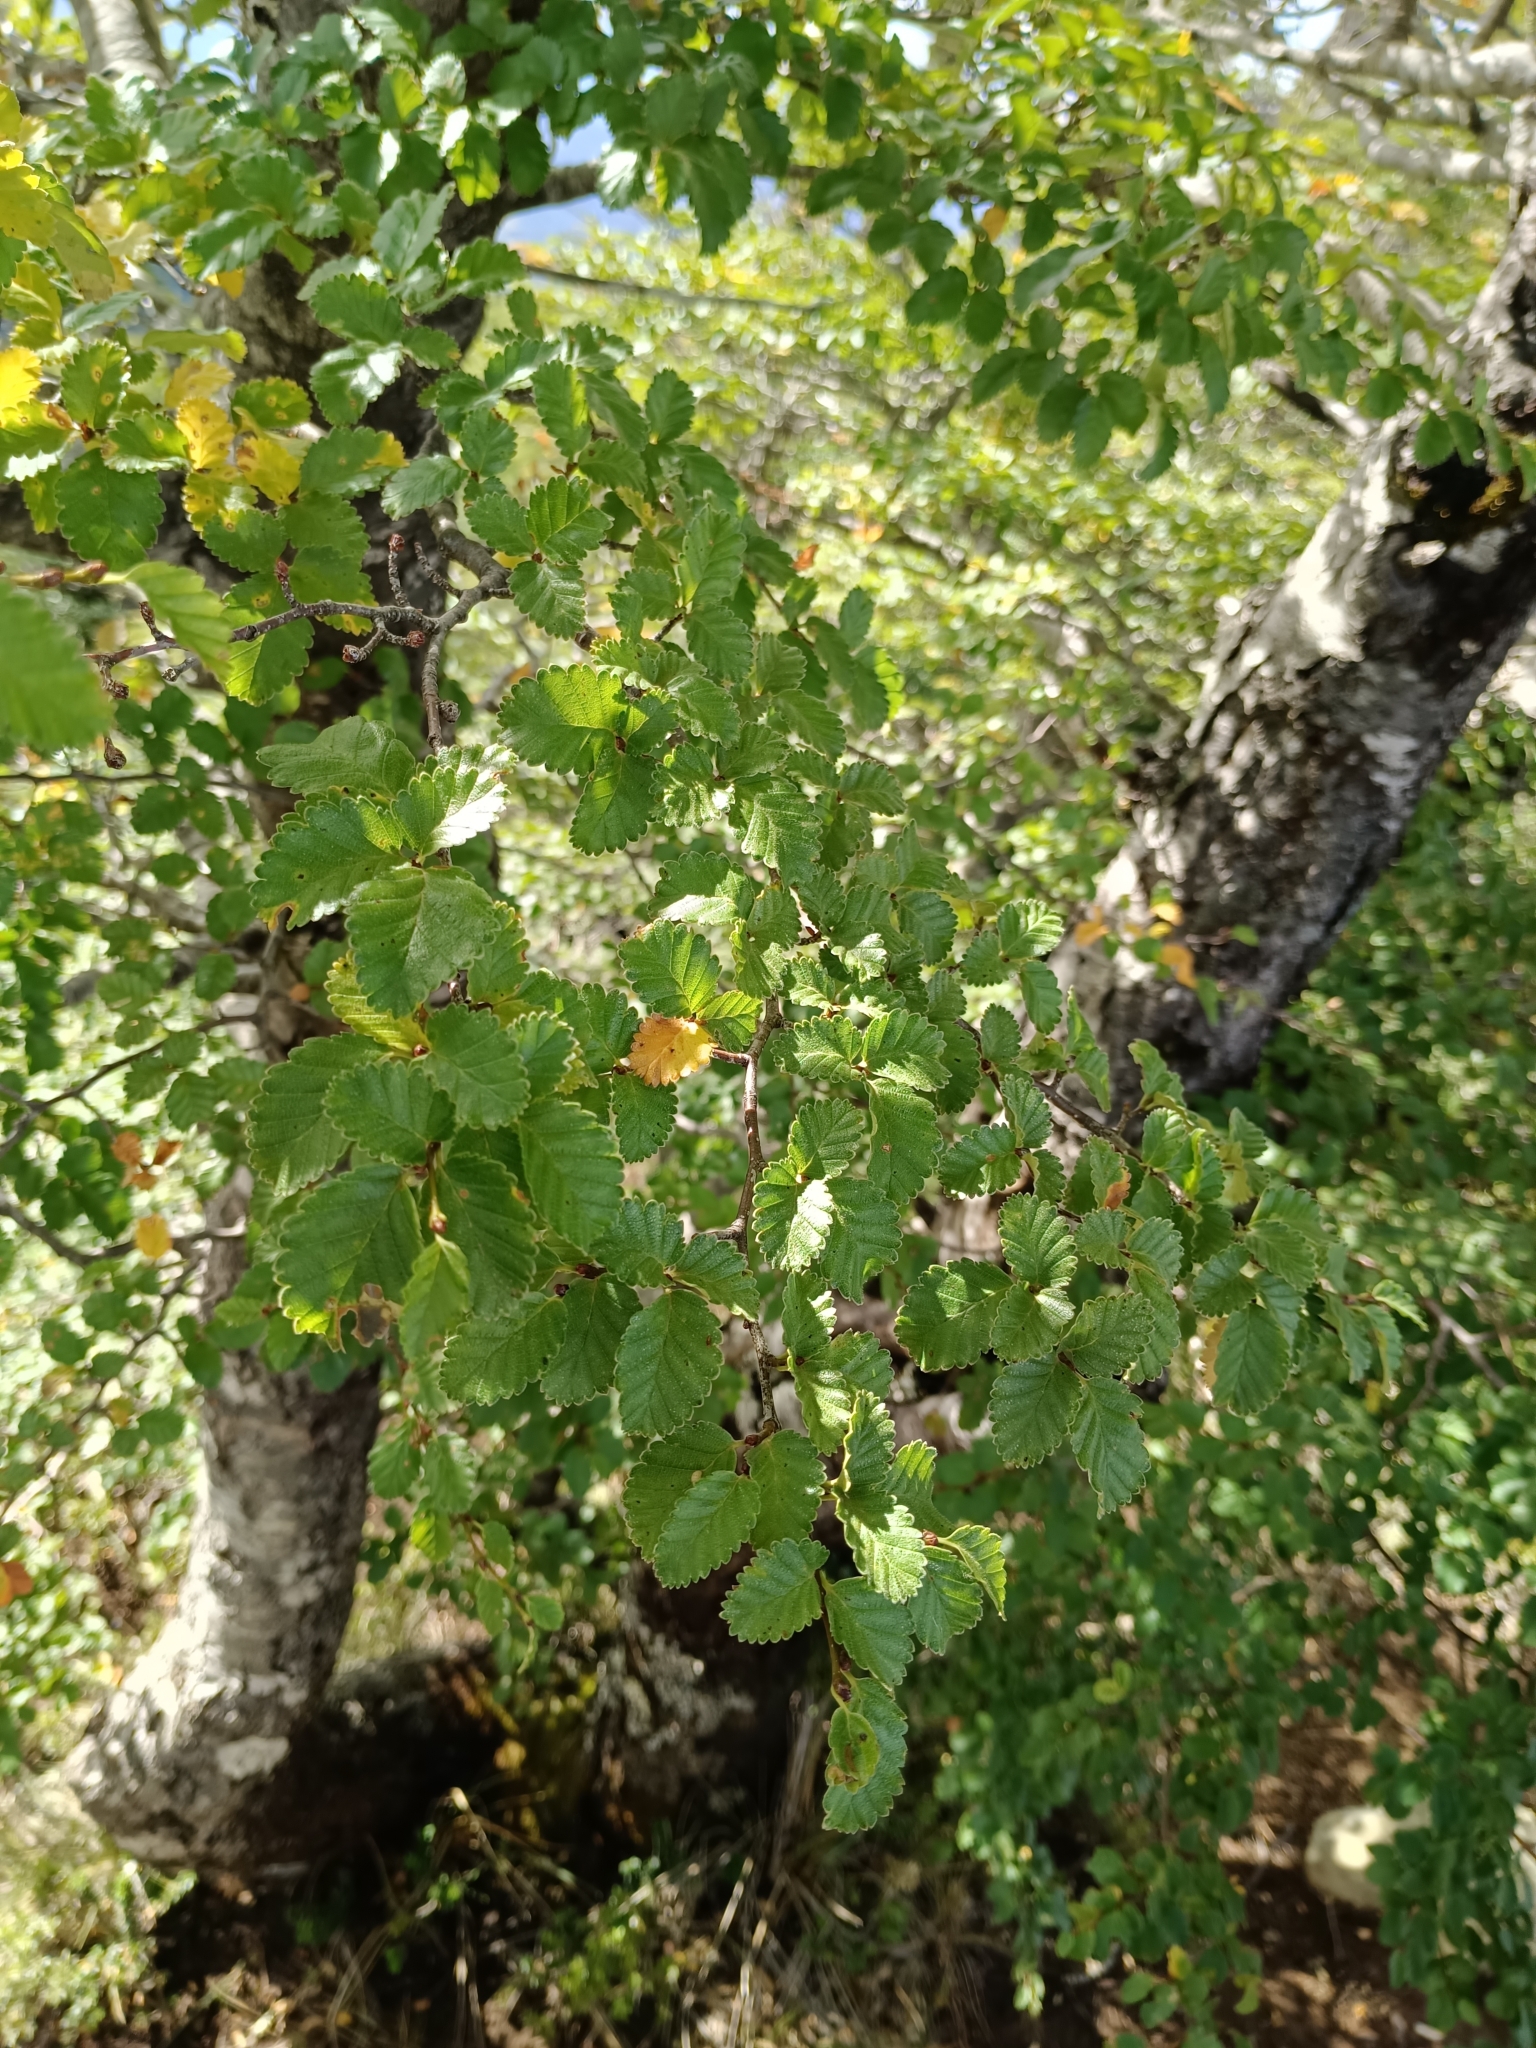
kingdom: Plantae
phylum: Tracheophyta
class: Magnoliopsida
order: Fagales
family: Nothofagaceae
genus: Nothofagus
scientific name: Nothofagus pumilio
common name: Lenga beech
